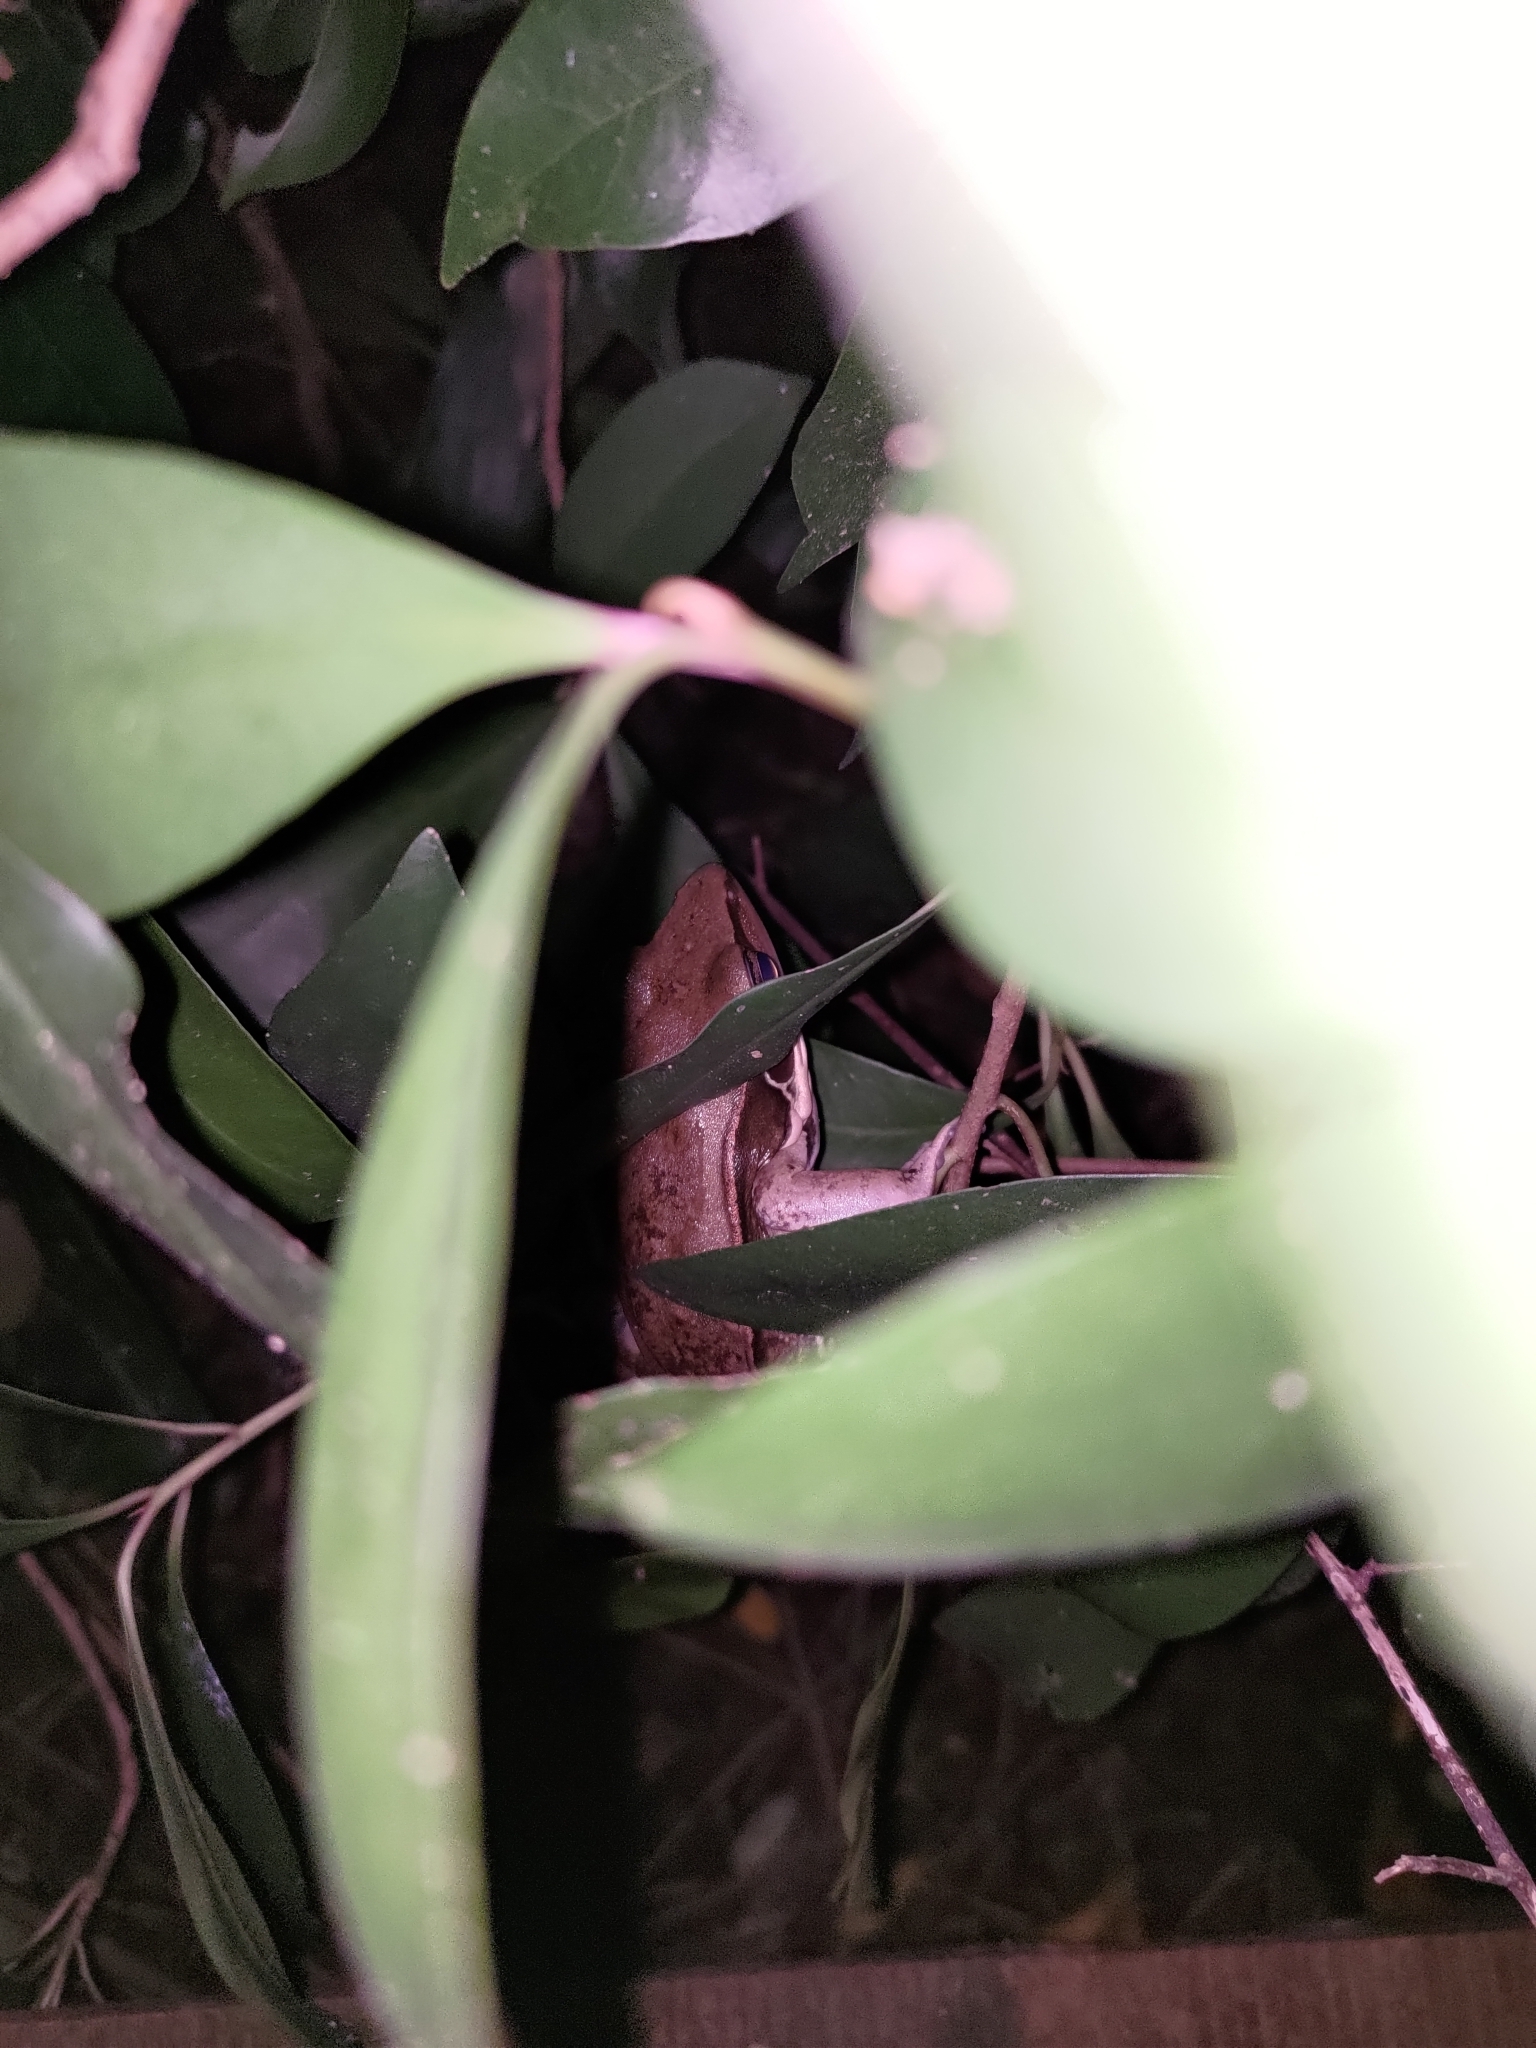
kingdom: Animalia
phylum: Chordata
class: Amphibia
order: Anura
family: Ranidae
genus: Sylvirana
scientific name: Sylvirana guentheri
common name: Guenther's amoy frog
